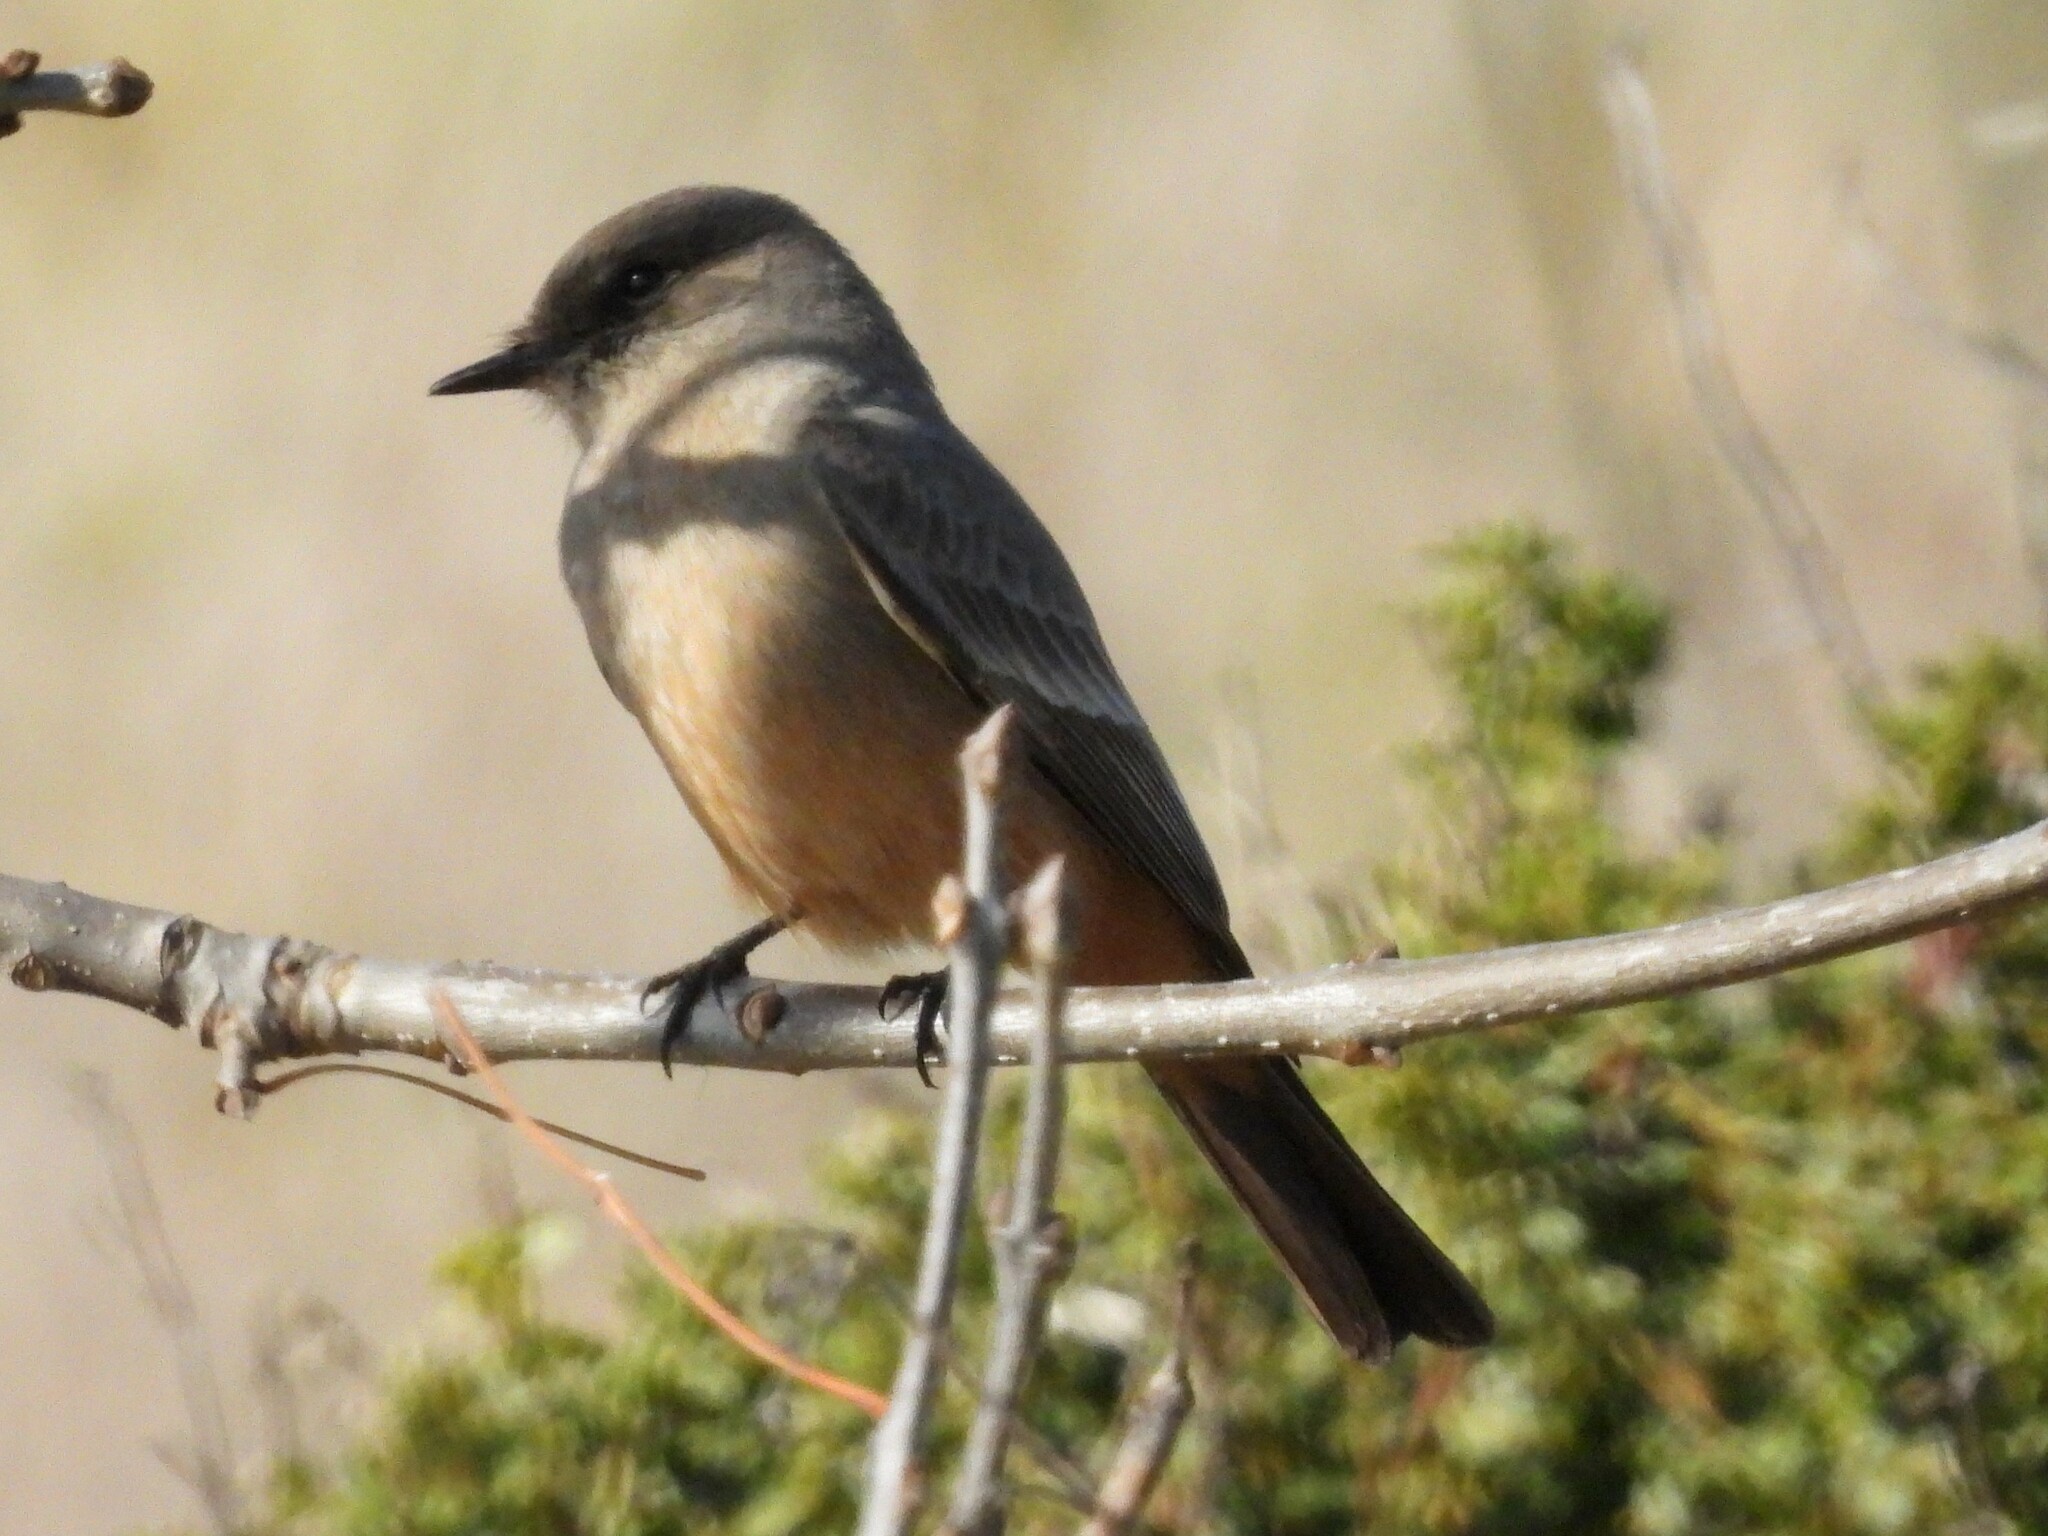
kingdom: Animalia
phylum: Chordata
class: Aves
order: Passeriformes
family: Tyrannidae
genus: Sayornis
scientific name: Sayornis saya
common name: Say's phoebe
